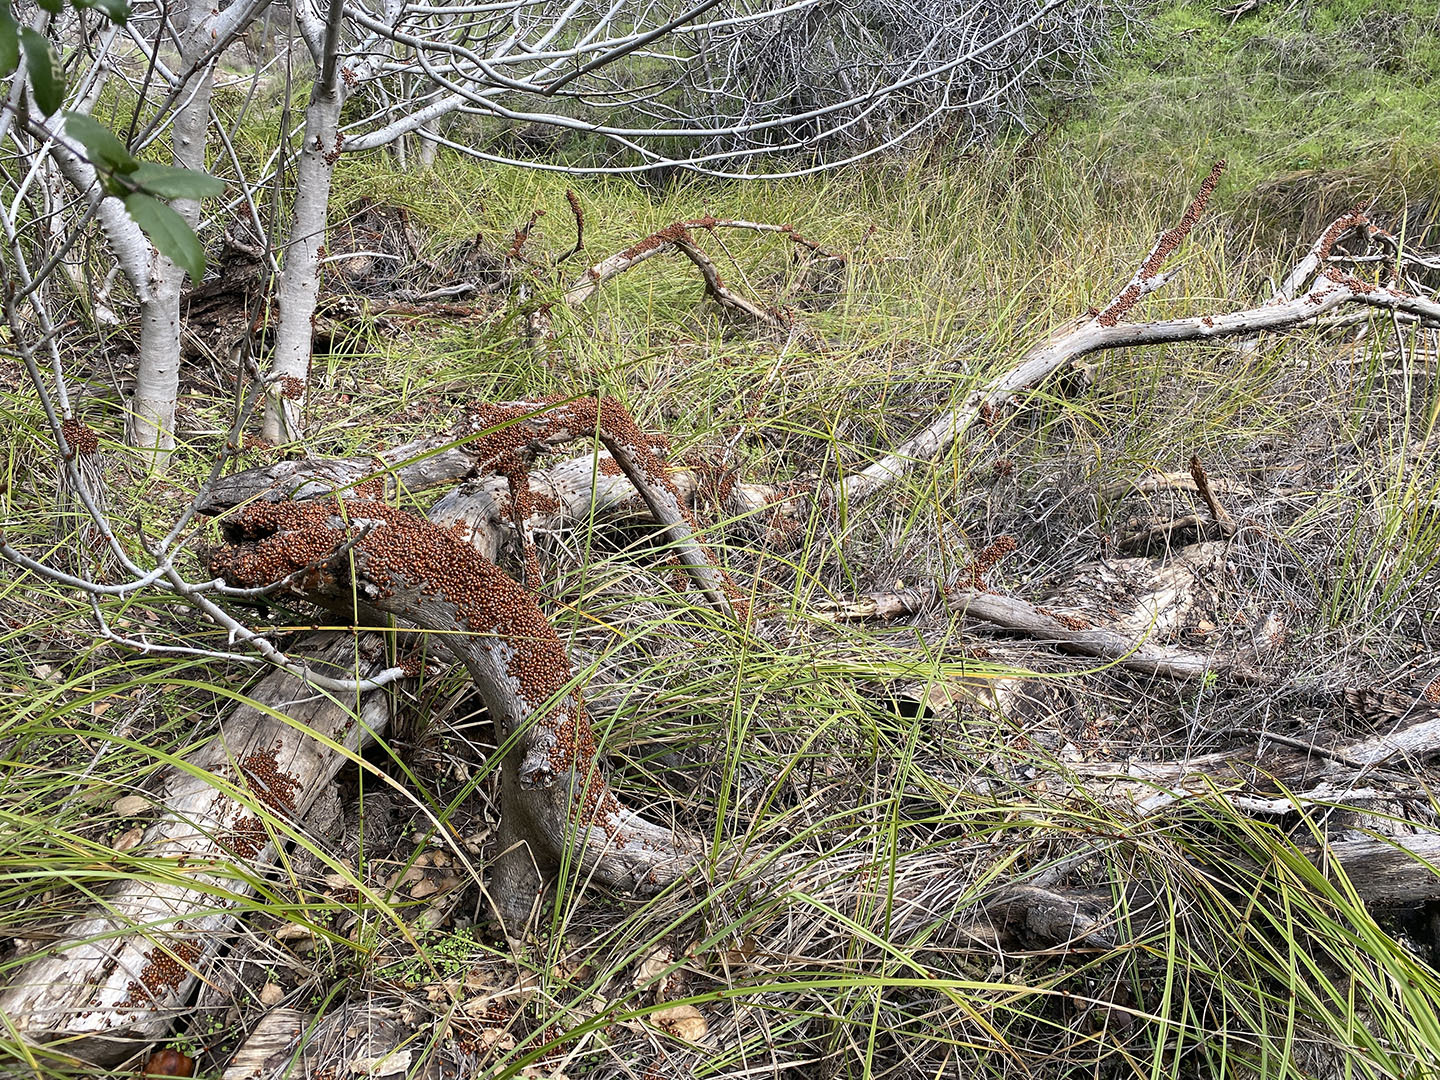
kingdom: Animalia
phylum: Arthropoda
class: Insecta
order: Coleoptera
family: Coccinellidae
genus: Hippodamia
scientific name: Hippodamia convergens
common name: Convergent lady beetle
